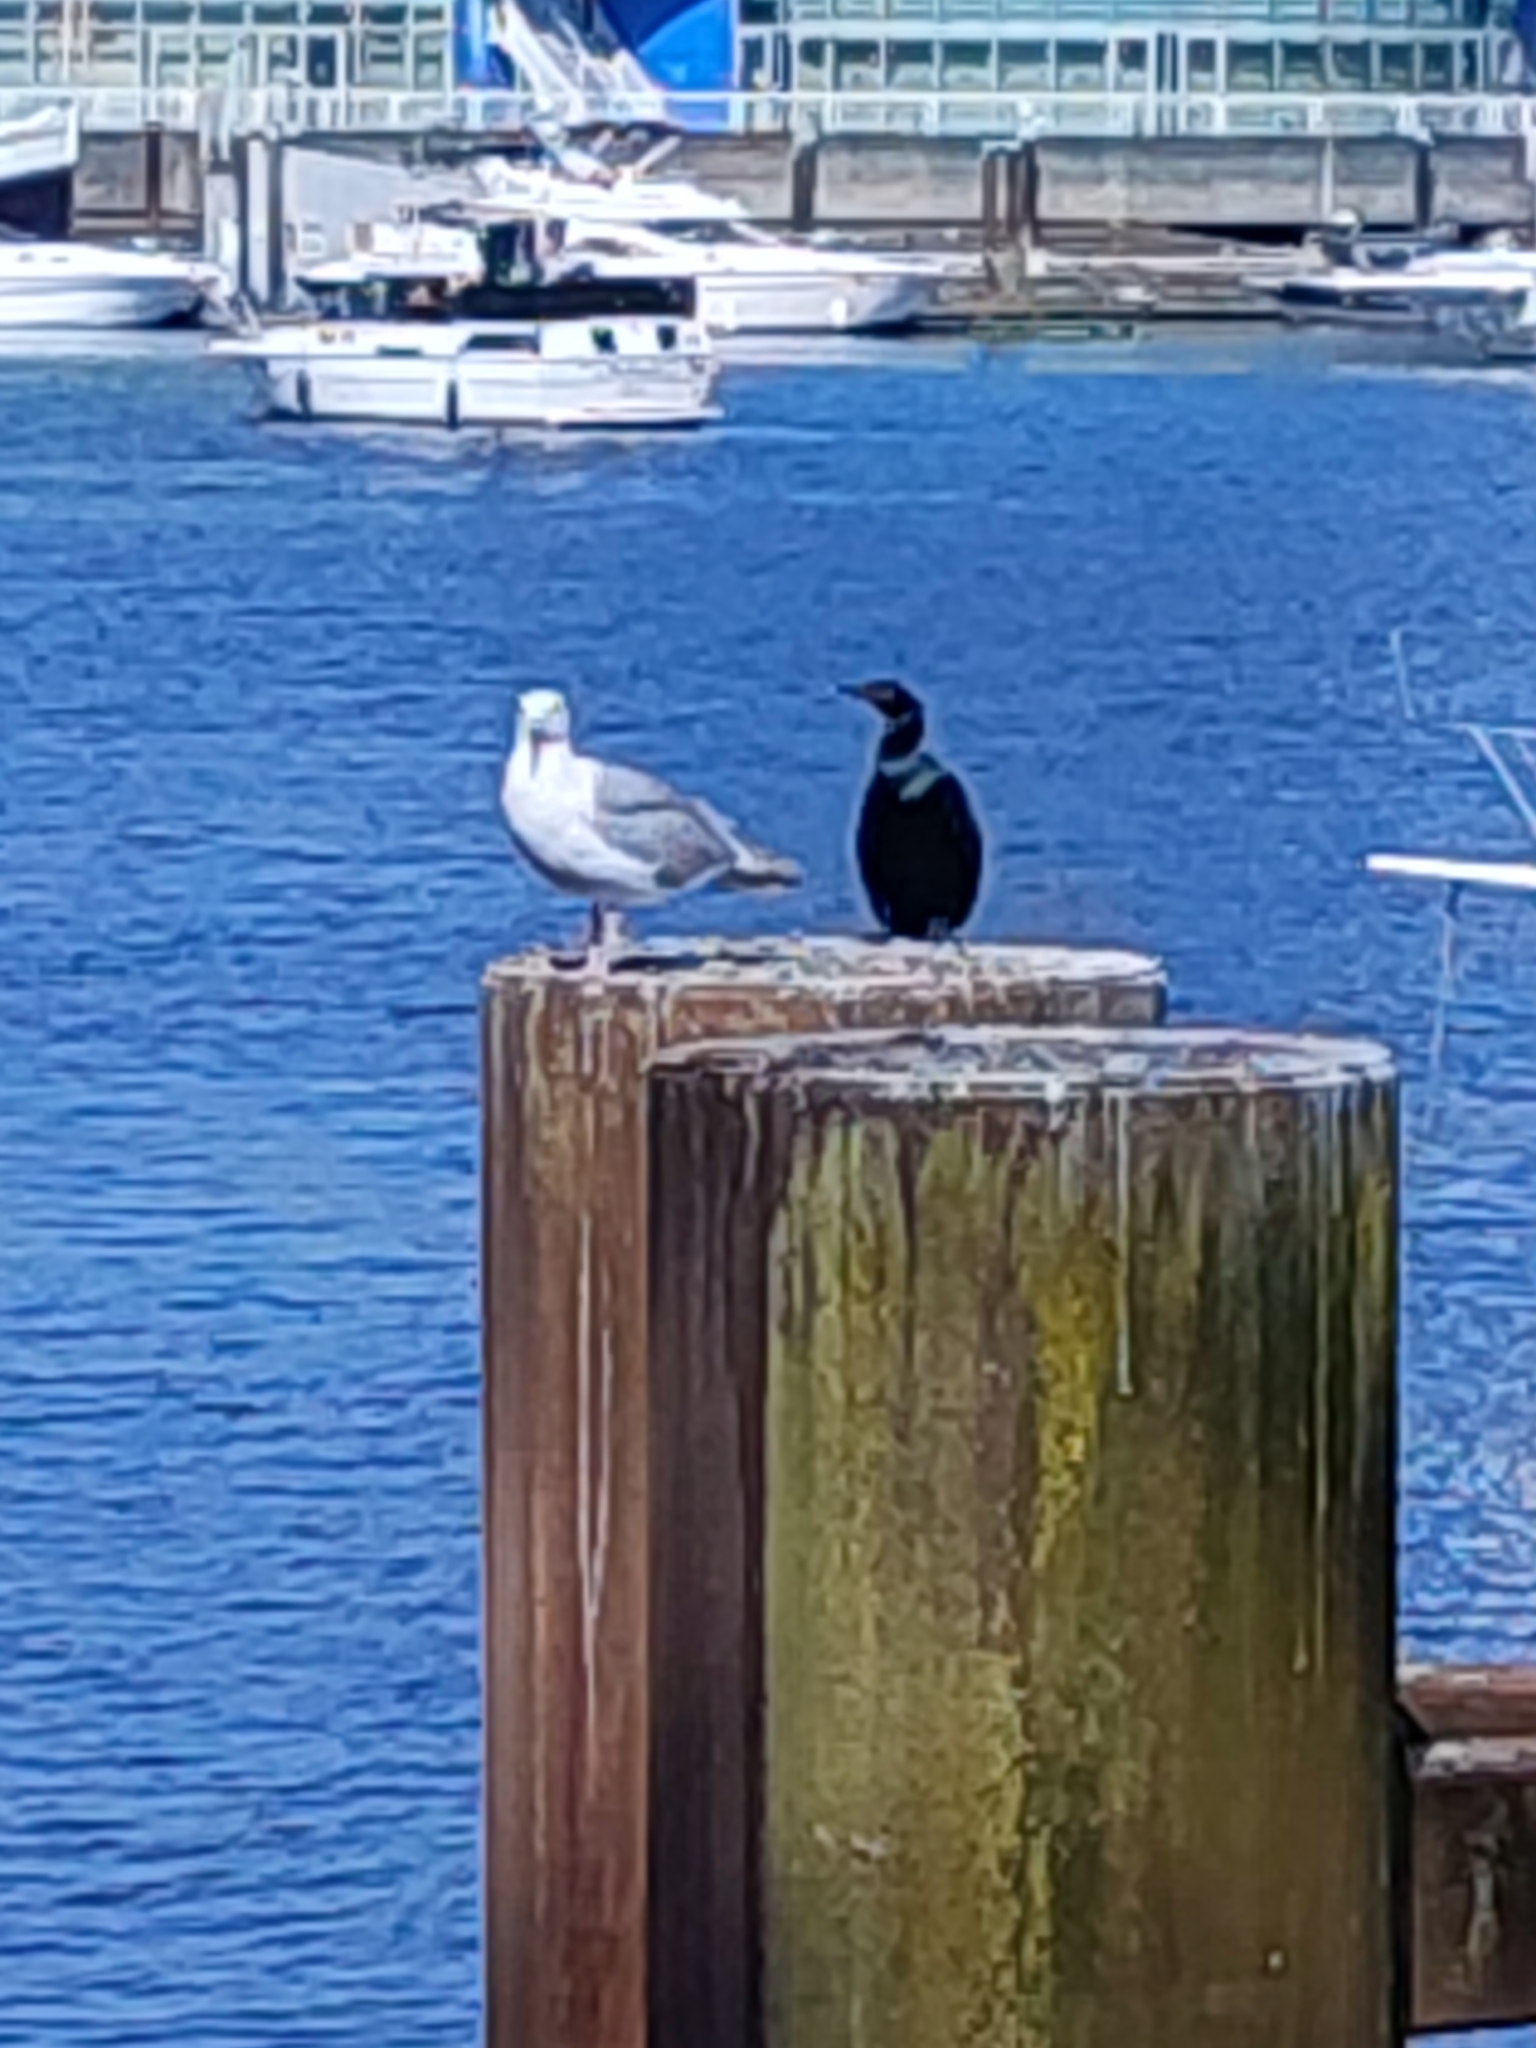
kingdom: Animalia
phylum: Chordata
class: Aves
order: Suliformes
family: Phalacrocoracidae
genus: Phalacrocorax
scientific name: Phalacrocorax pelagicus
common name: Pelagic cormorant
